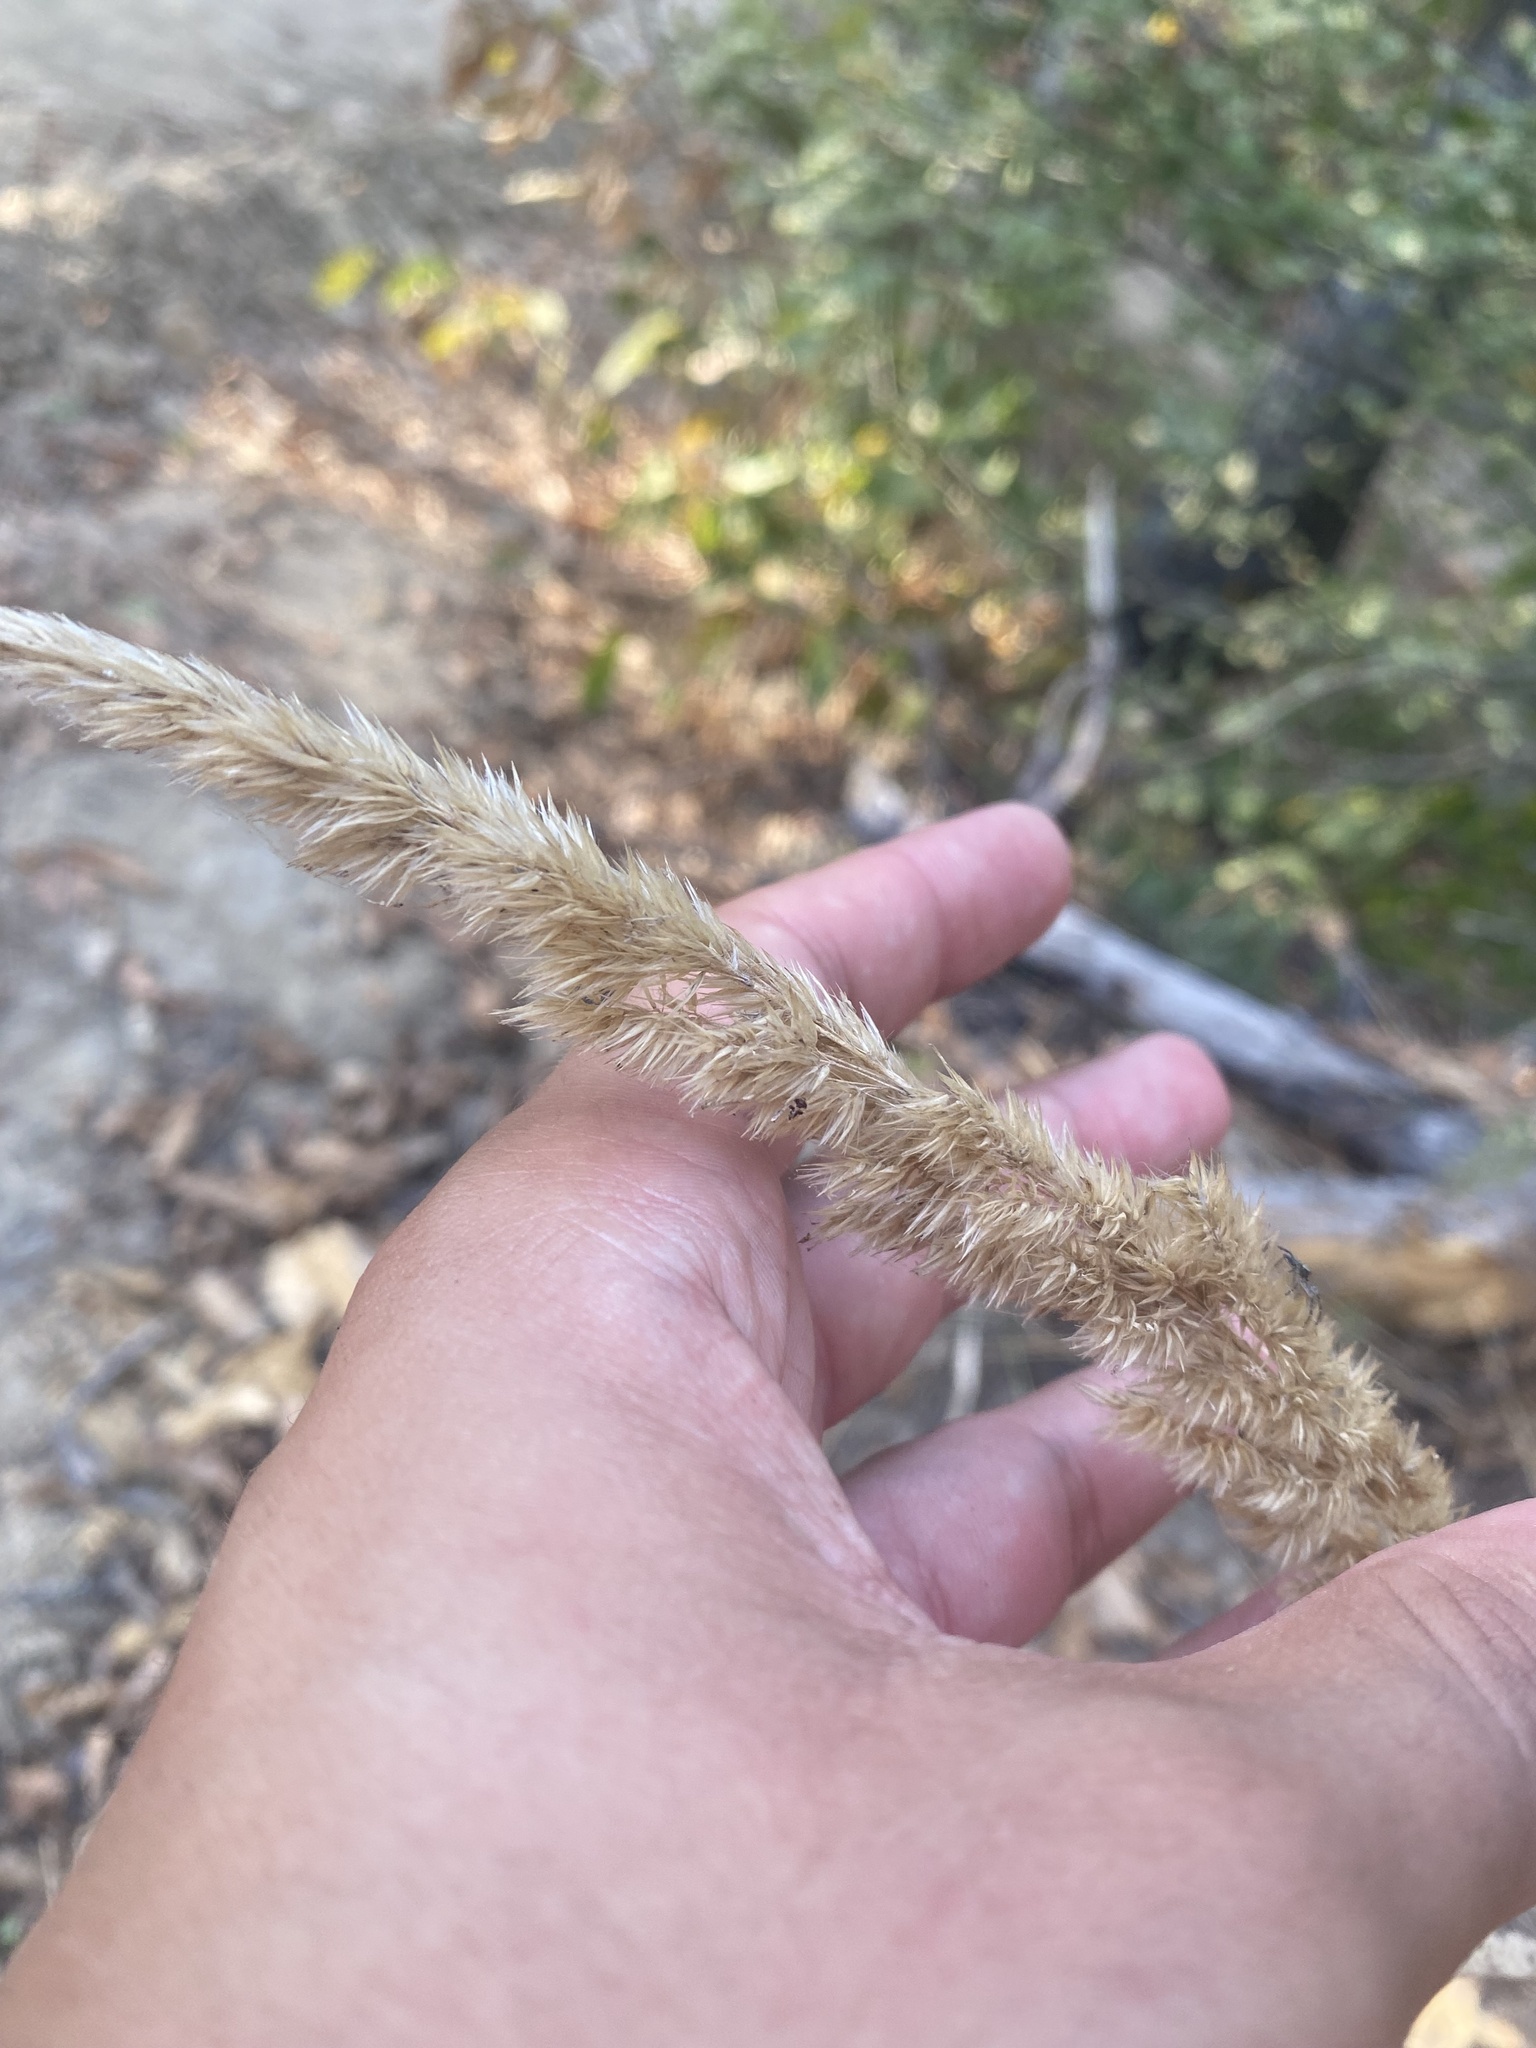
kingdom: Plantae
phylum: Tracheophyta
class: Liliopsida
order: Poales
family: Poaceae
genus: Calamagrostis
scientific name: Calamagrostis epigejos
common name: Wood small-reed
